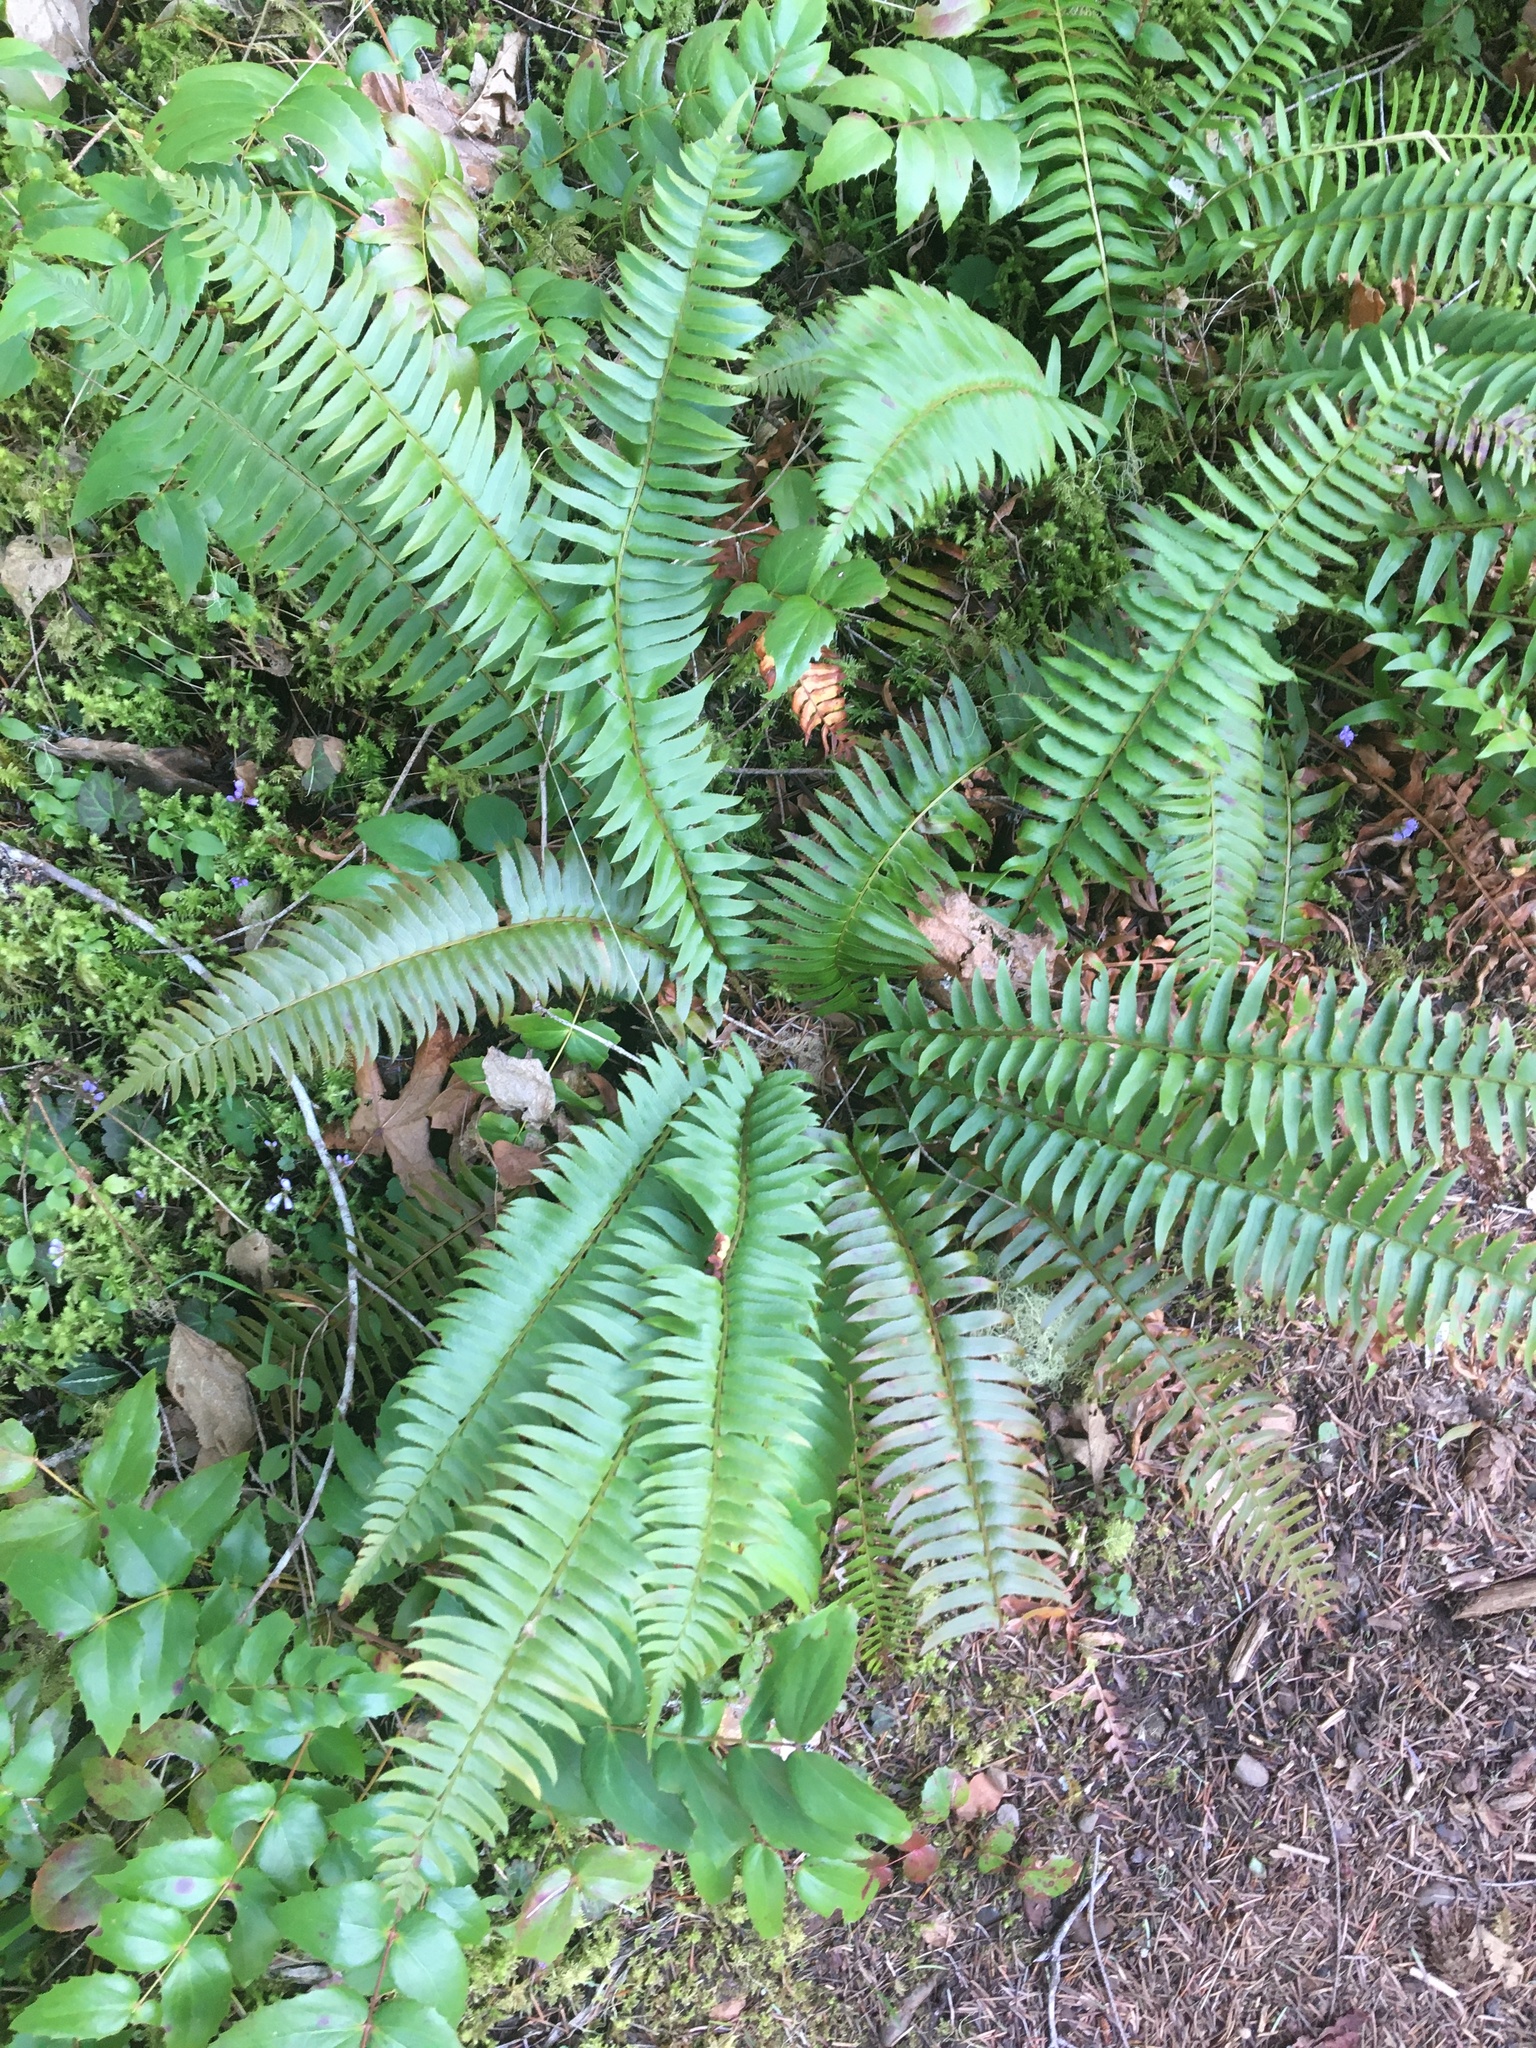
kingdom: Plantae
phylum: Tracheophyta
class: Polypodiopsida
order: Polypodiales
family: Dryopteridaceae
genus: Polystichum
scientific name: Polystichum munitum
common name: Western sword-fern
